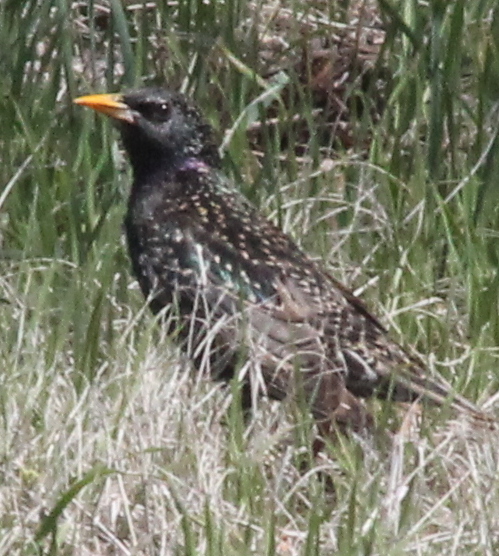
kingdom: Animalia
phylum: Chordata
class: Aves
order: Passeriformes
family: Sturnidae
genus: Sturnus
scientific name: Sturnus vulgaris
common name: Common starling
